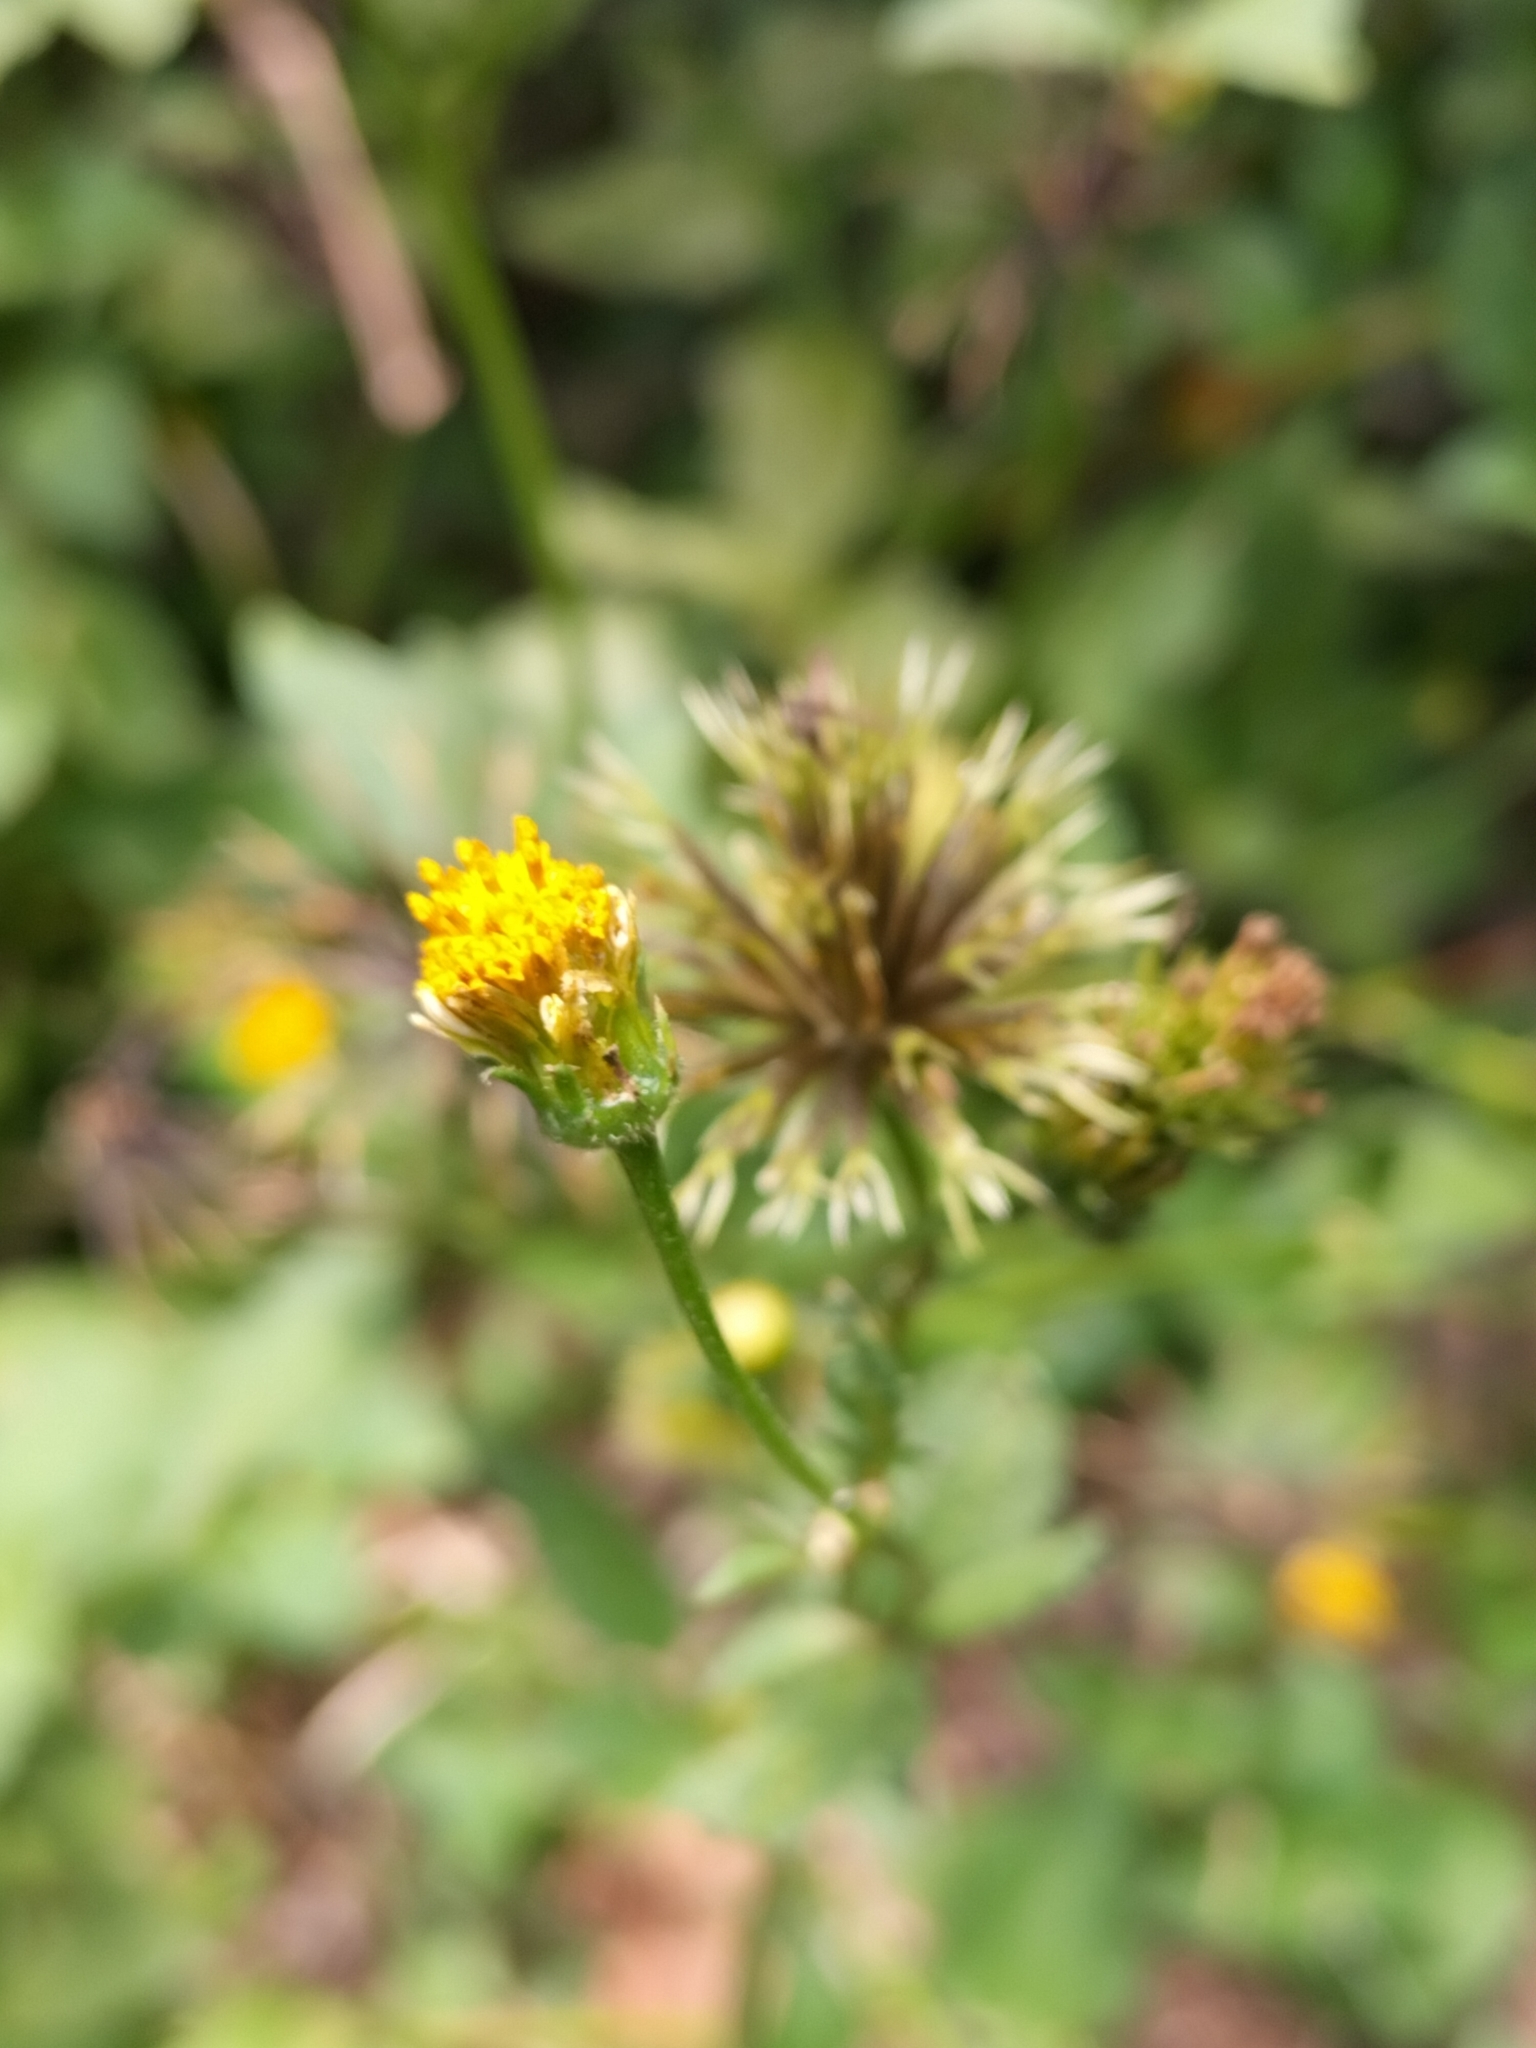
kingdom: Plantae
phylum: Tracheophyta
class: Magnoliopsida
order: Asterales
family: Asteraceae
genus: Bidens
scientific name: Bidens pilosa
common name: Black-jack
